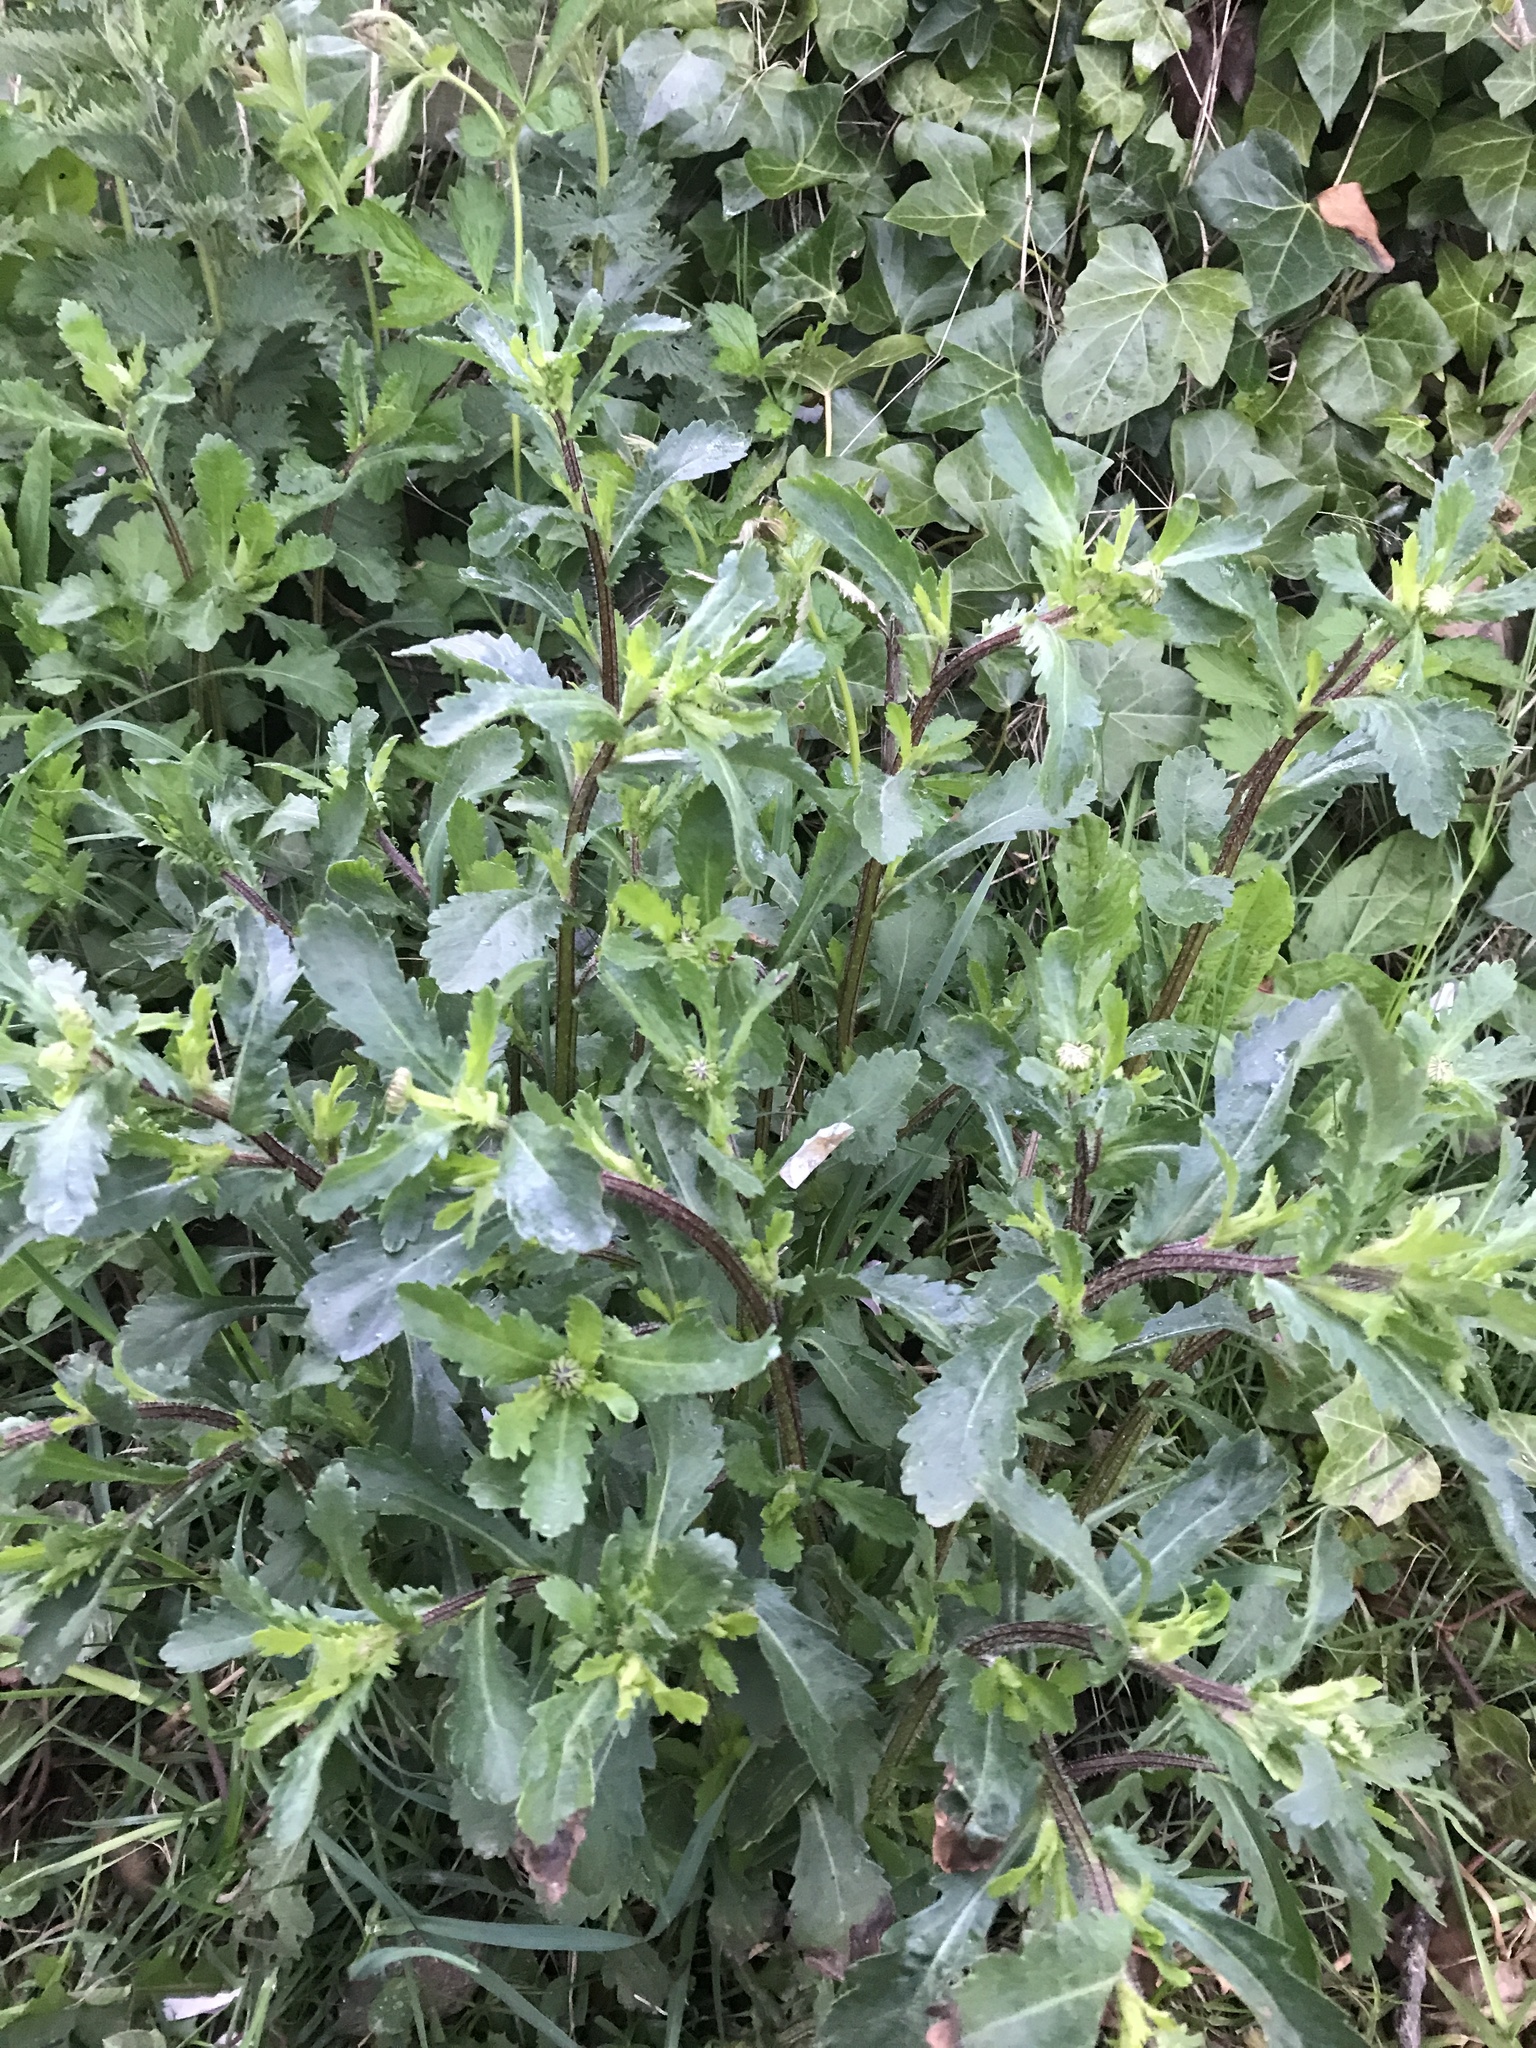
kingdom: Plantae
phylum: Tracheophyta
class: Magnoliopsida
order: Asterales
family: Asteraceae
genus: Leucanthemum
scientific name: Leucanthemum vulgare
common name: Oxeye daisy
